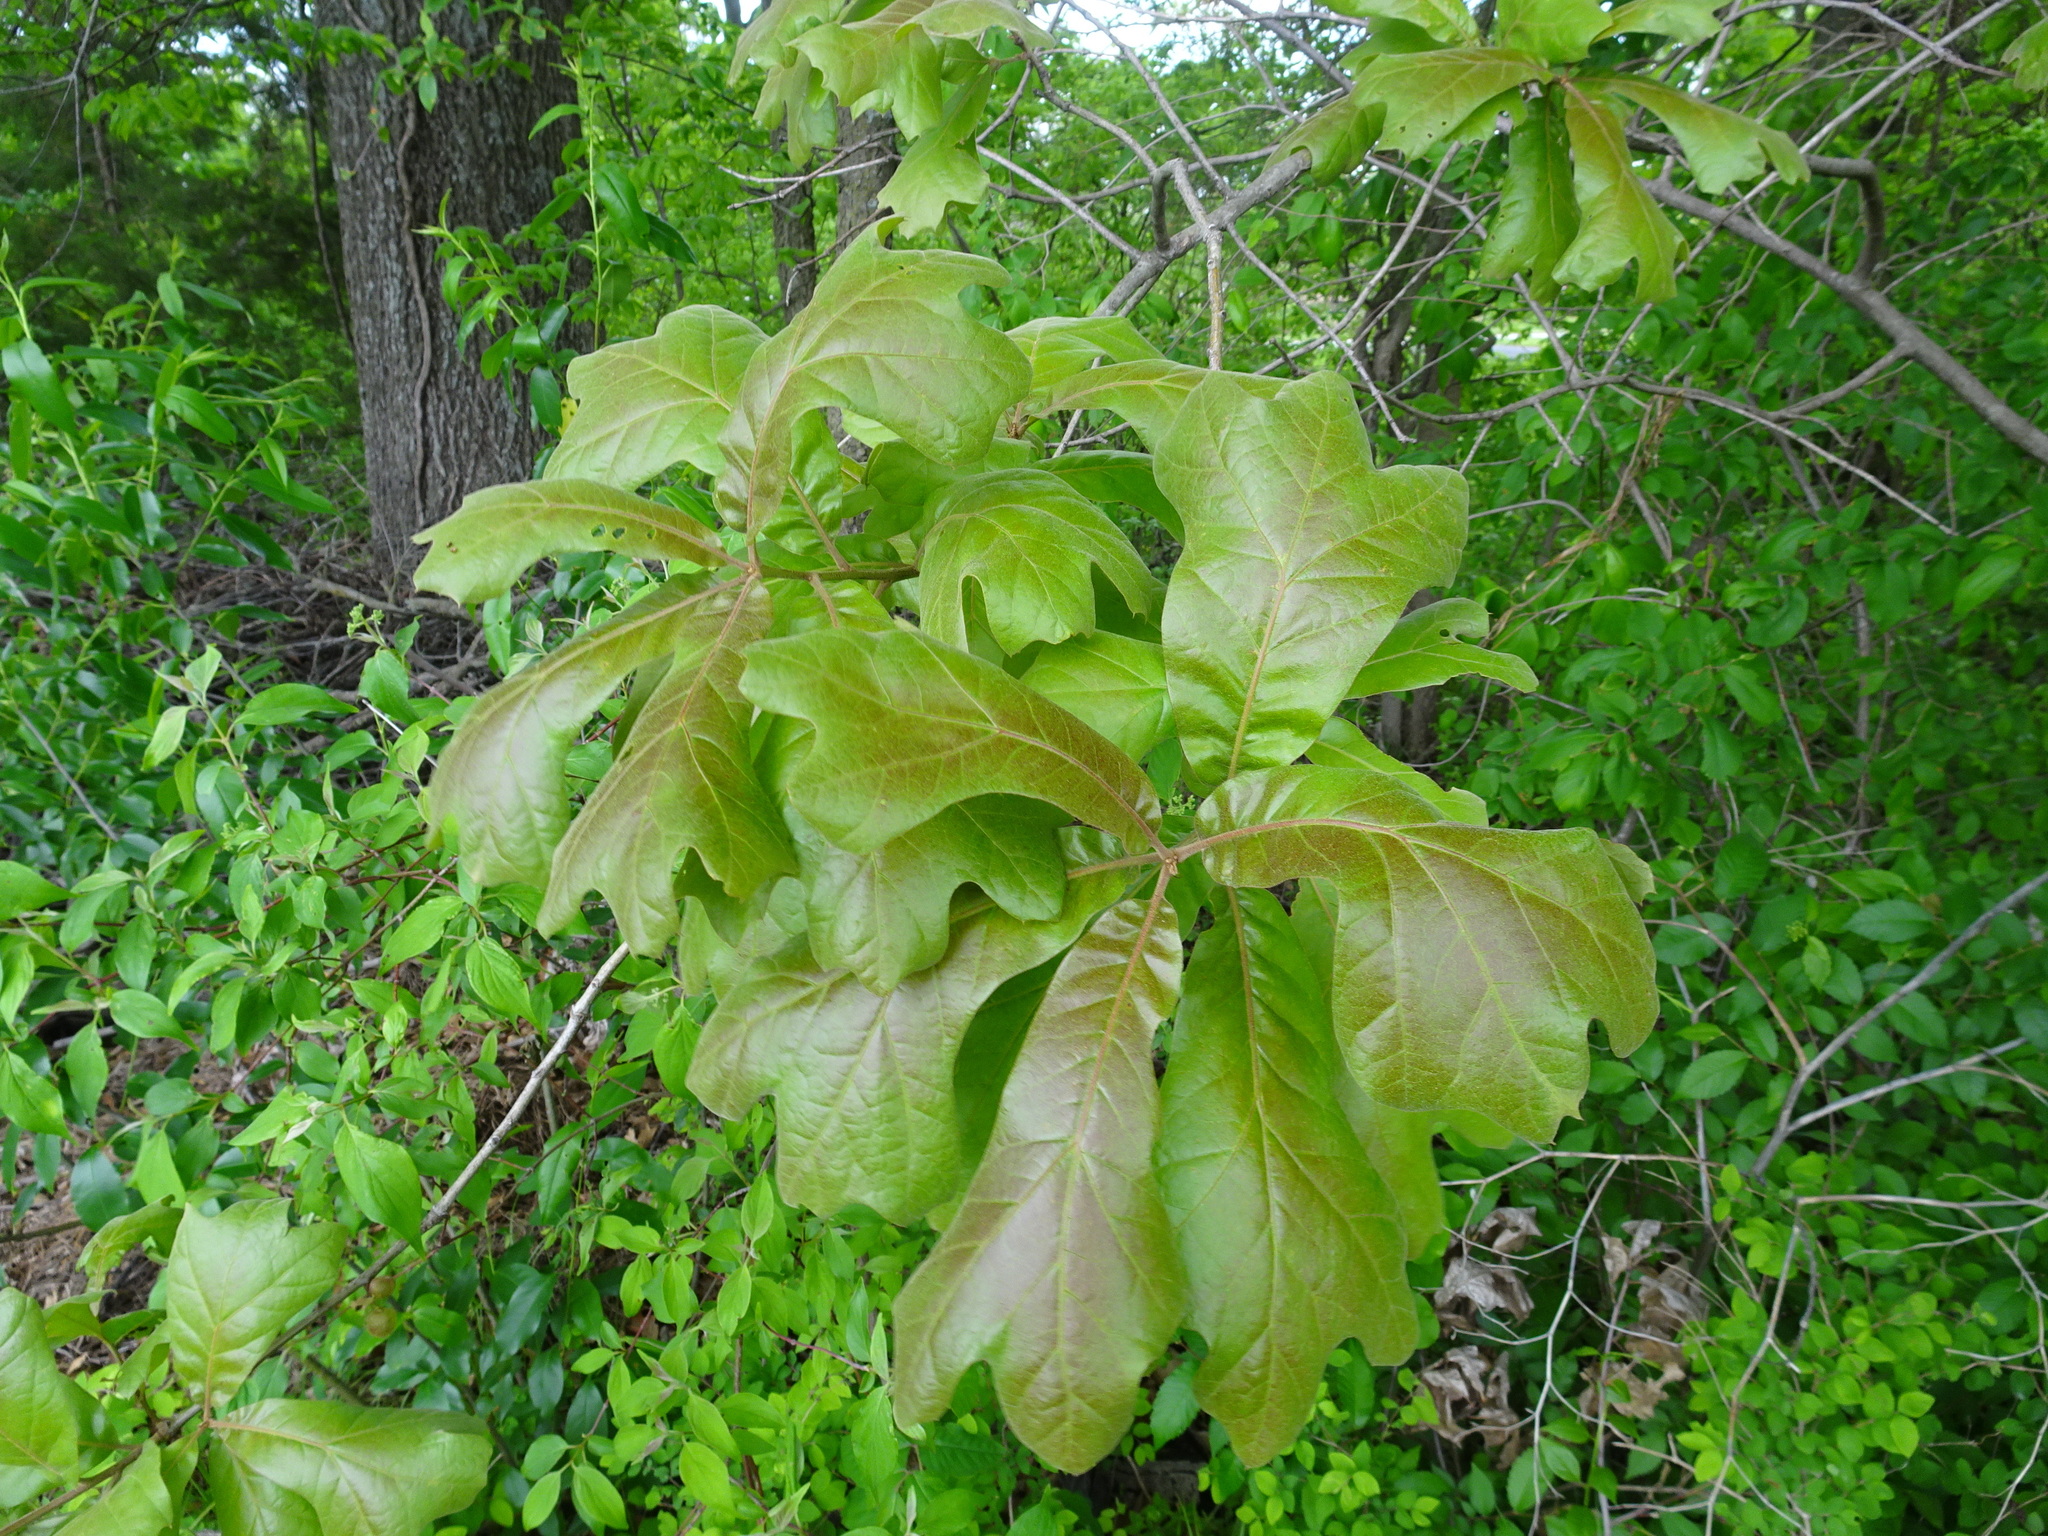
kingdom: Plantae
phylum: Tracheophyta
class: Magnoliopsida
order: Fagales
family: Fagaceae
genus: Quercus
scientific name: Quercus marilandica
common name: Blackjack oak
